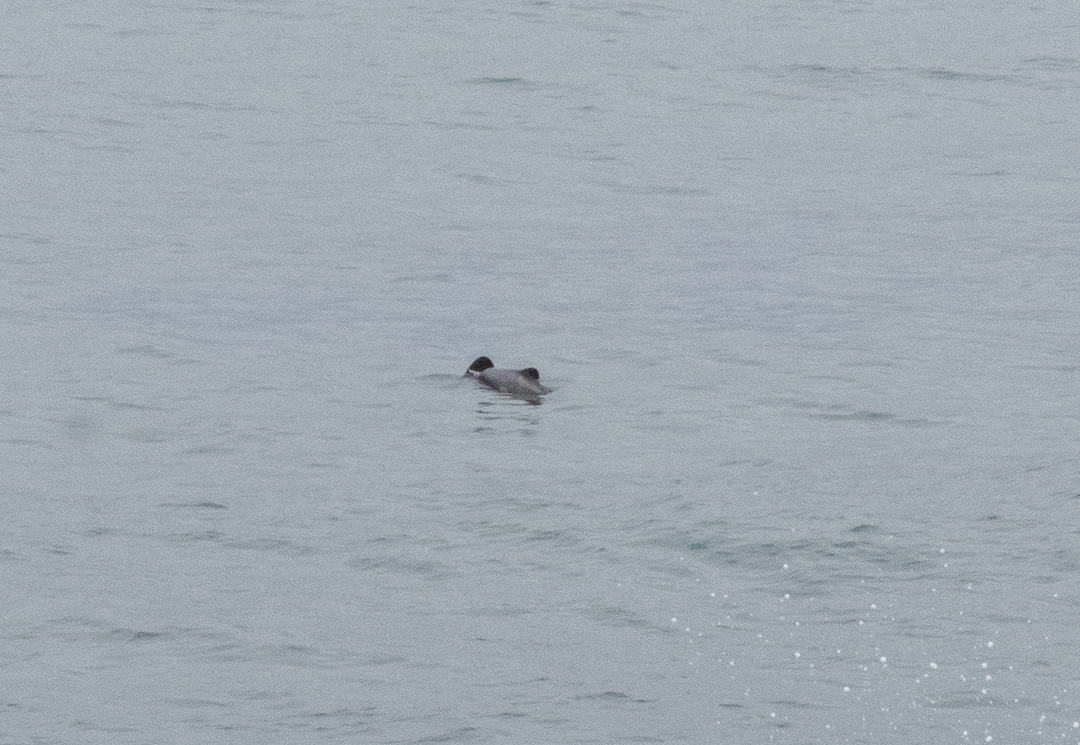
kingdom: Animalia
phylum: Chordata
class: Mammalia
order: Cetacea
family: Delphinidae
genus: Cephalorhynchus
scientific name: Cephalorhynchus hectori
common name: Hector's dolphin
